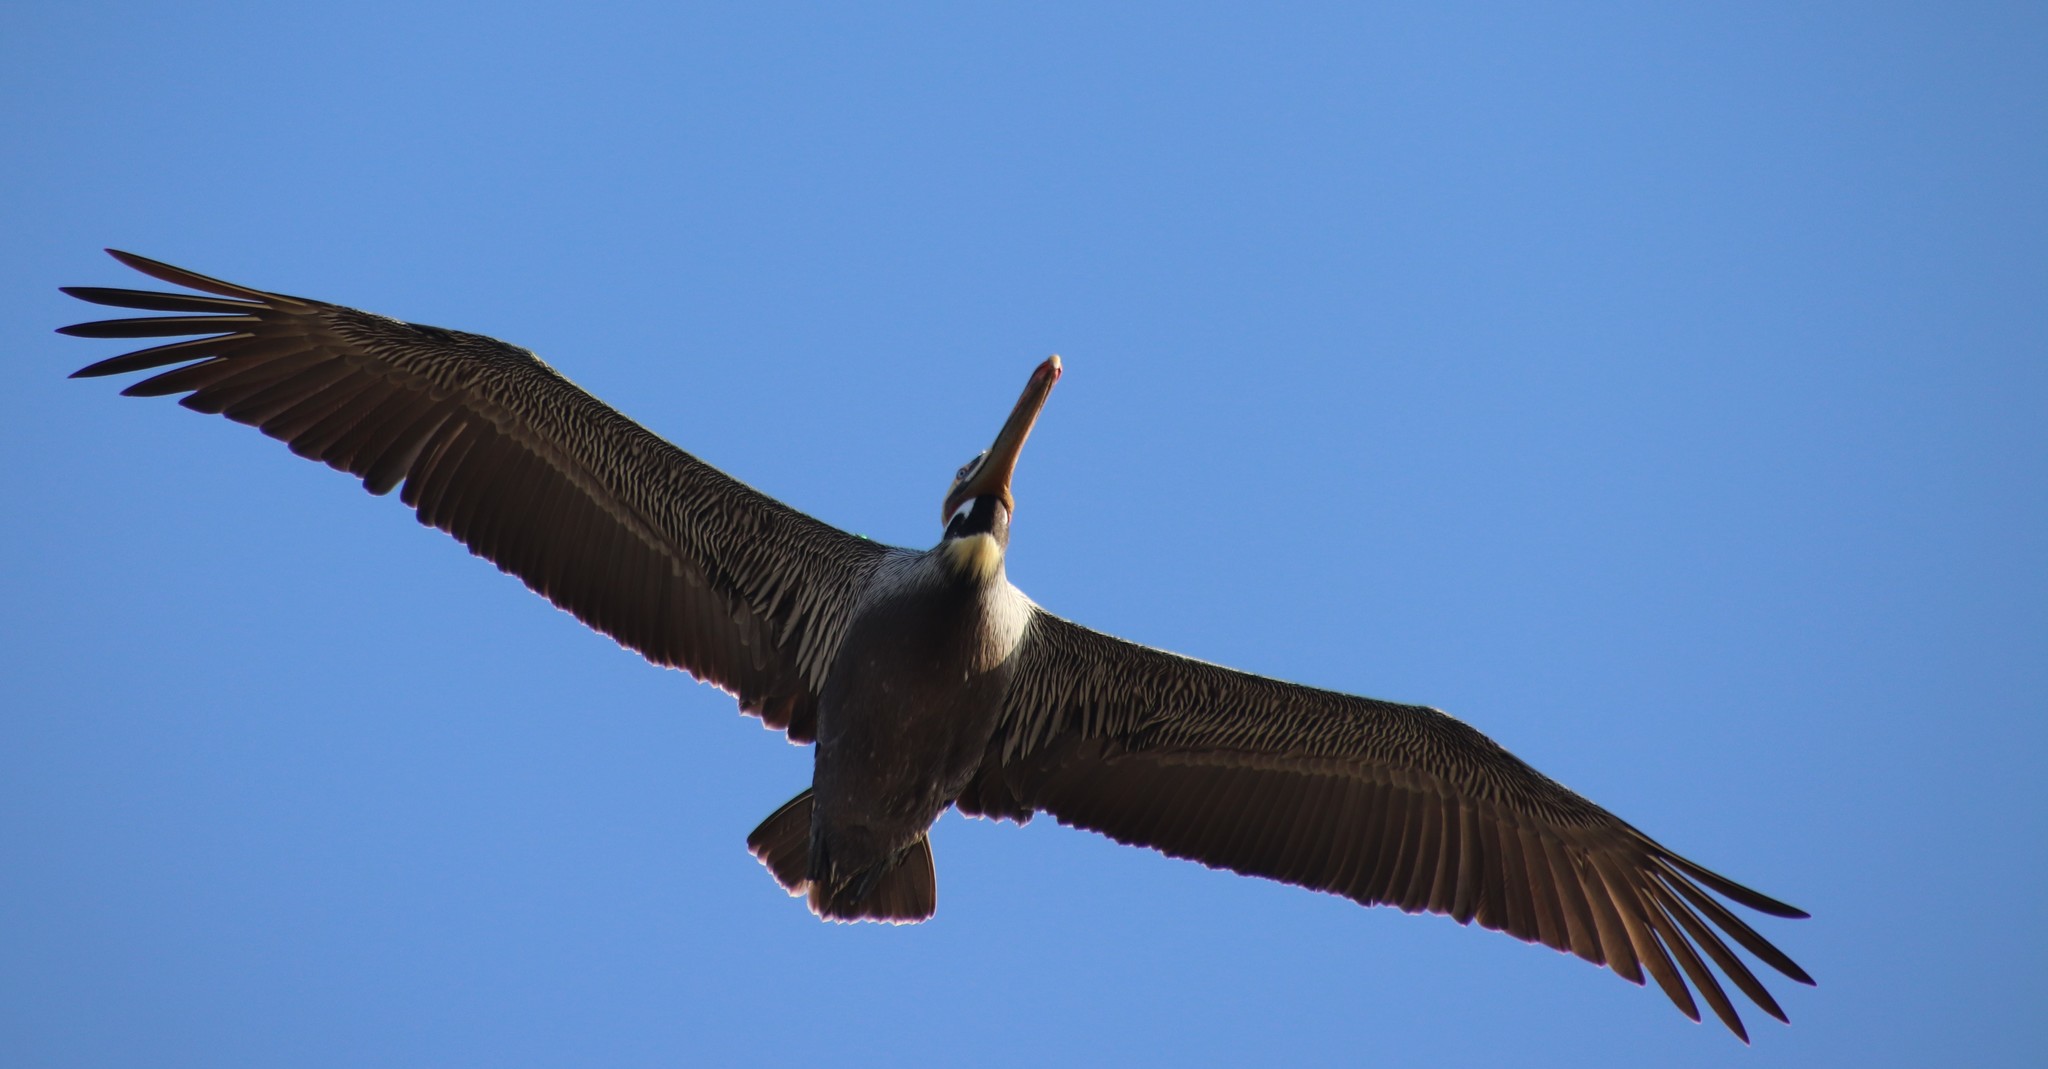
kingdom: Animalia
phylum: Chordata
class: Aves
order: Pelecaniformes
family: Pelecanidae
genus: Pelecanus
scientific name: Pelecanus occidentalis
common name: Brown pelican
